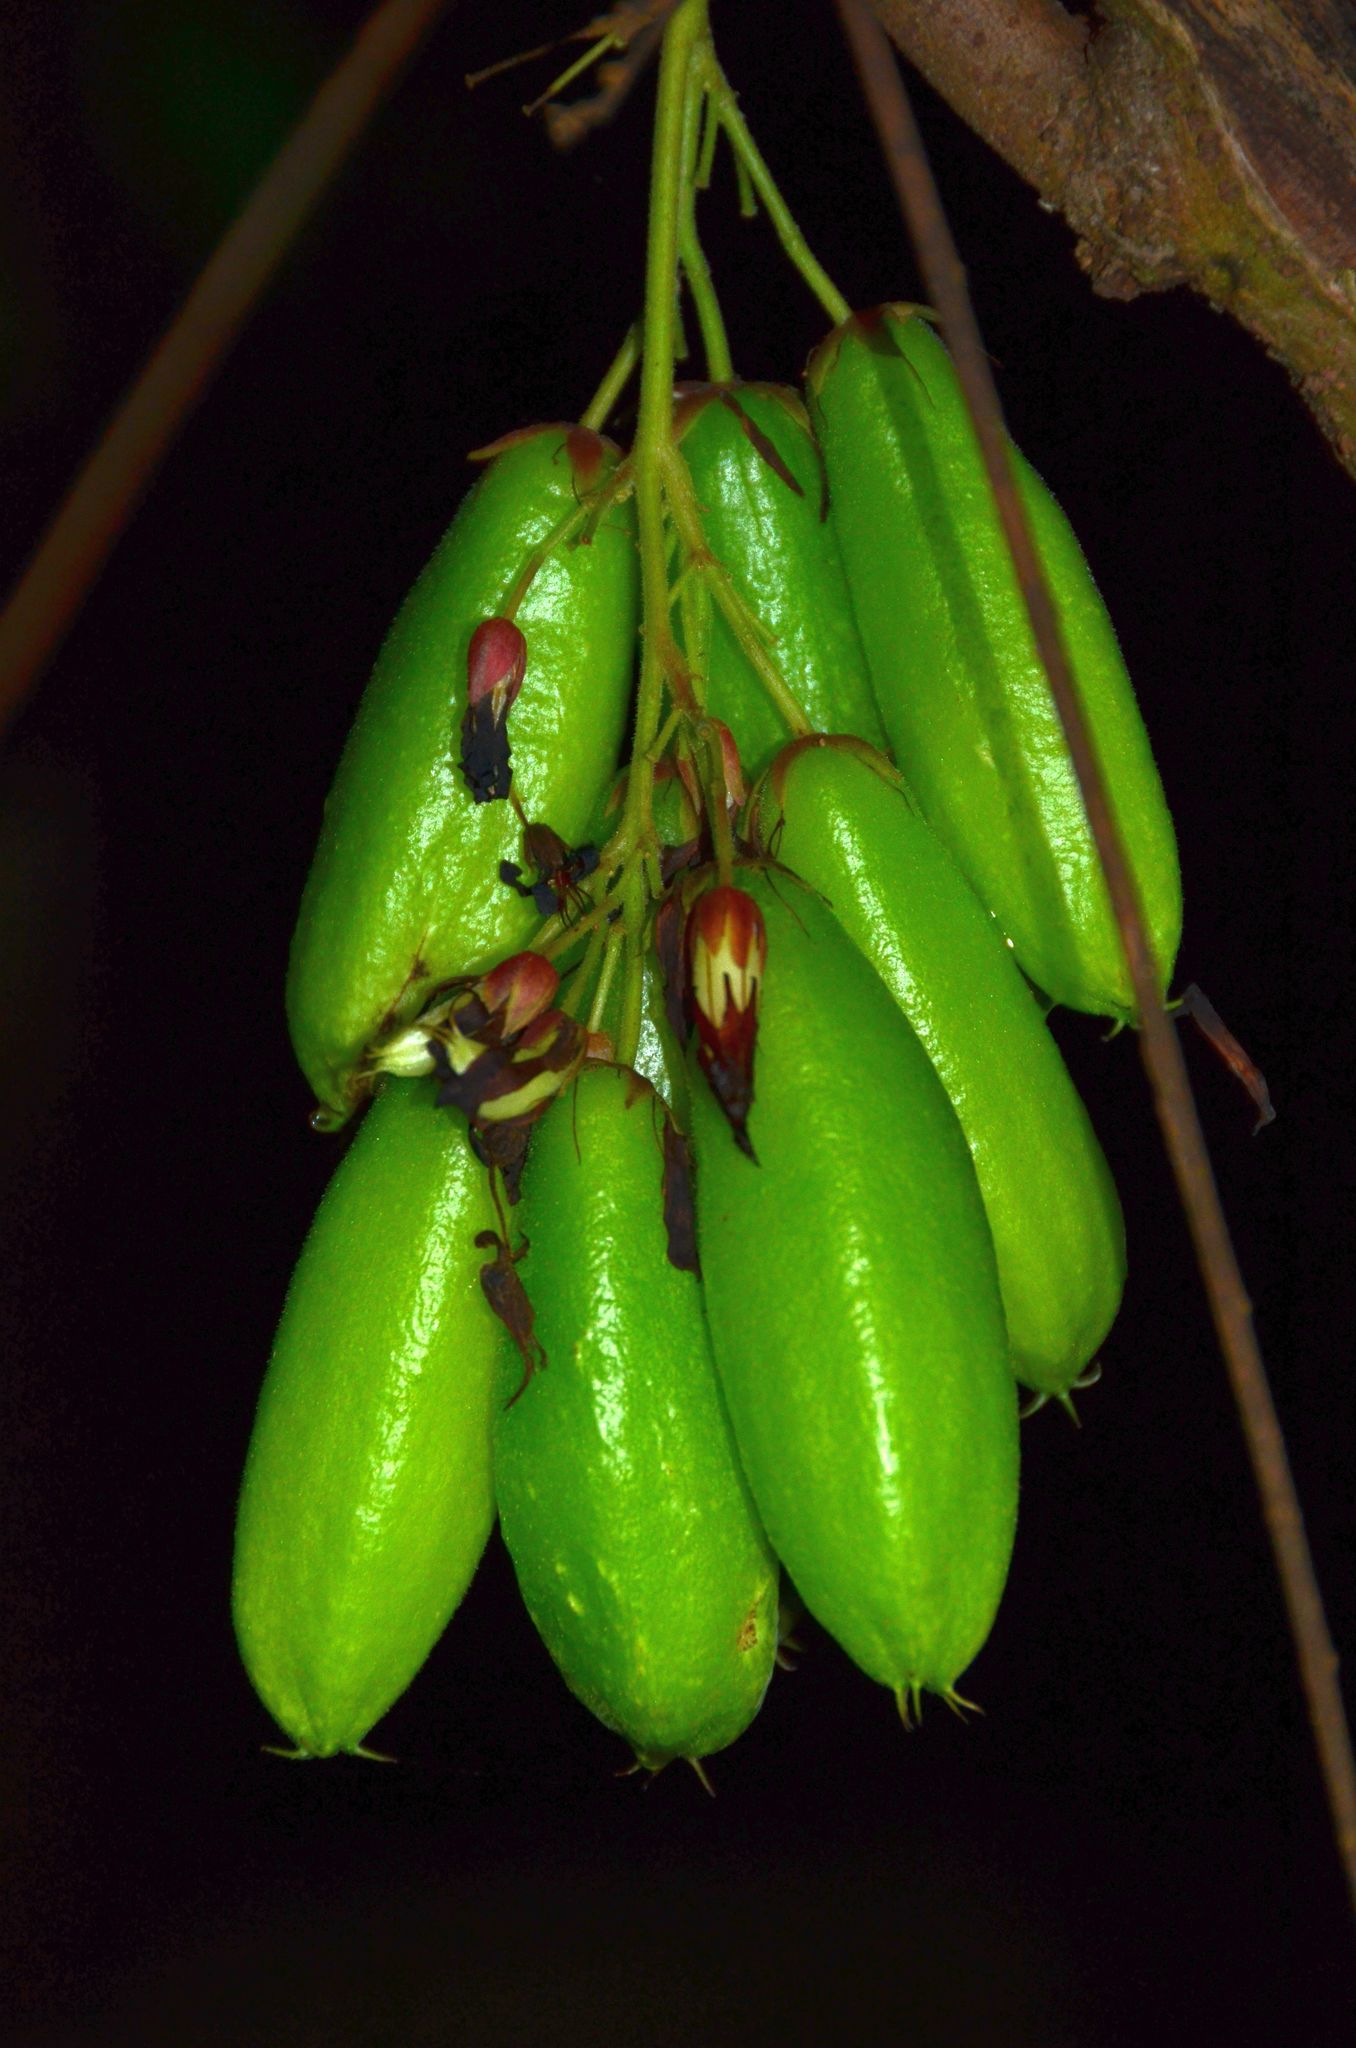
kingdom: Plantae
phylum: Tracheophyta
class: Magnoliopsida
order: Oxalidales
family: Oxalidaceae
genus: Averrhoa
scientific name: Averrhoa bilimbi
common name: Bilimbi
